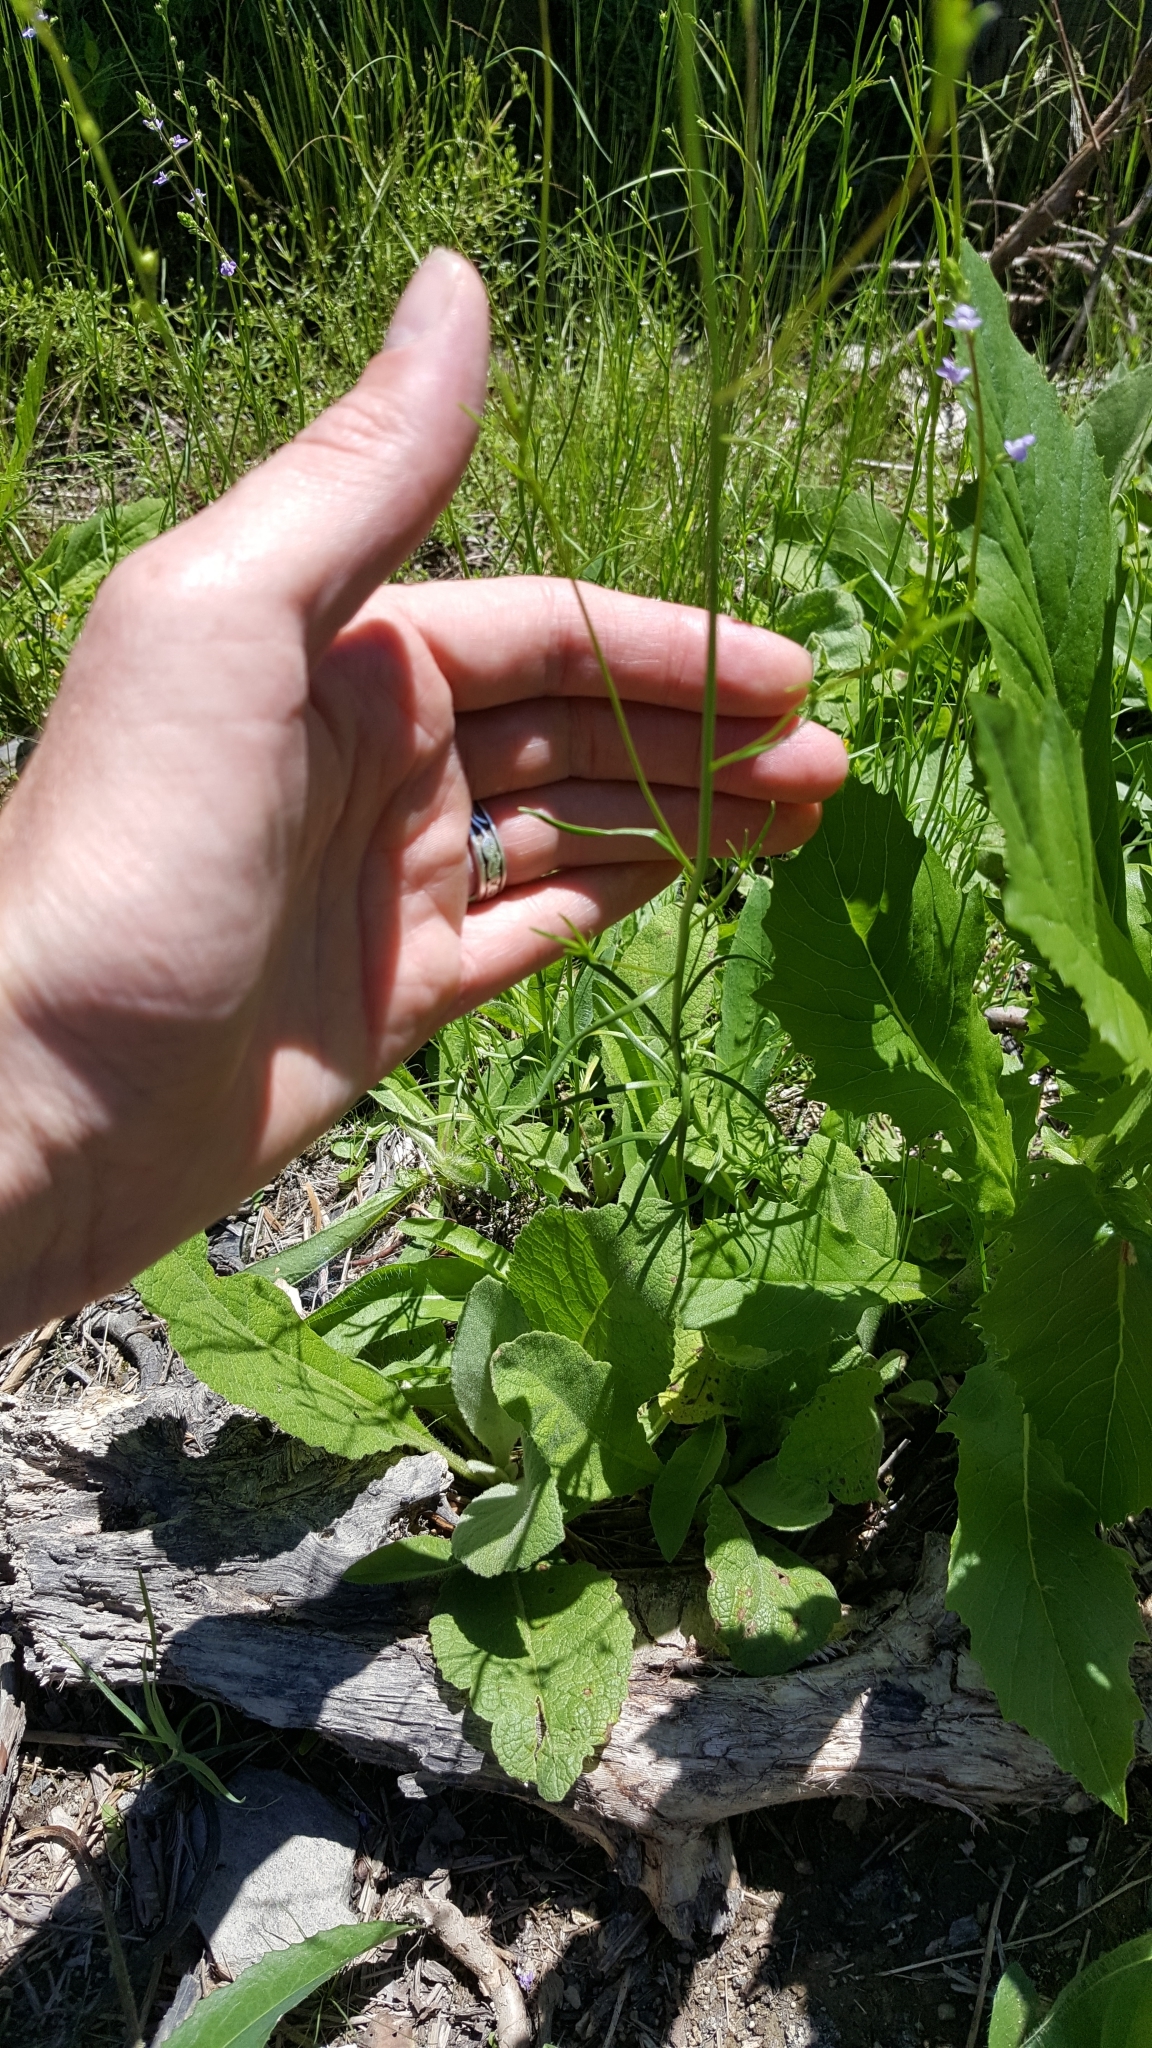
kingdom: Plantae
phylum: Tracheophyta
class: Magnoliopsida
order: Lamiales
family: Plantaginaceae
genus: Nuttallanthus
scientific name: Nuttallanthus canadensis
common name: Blue toadflax
